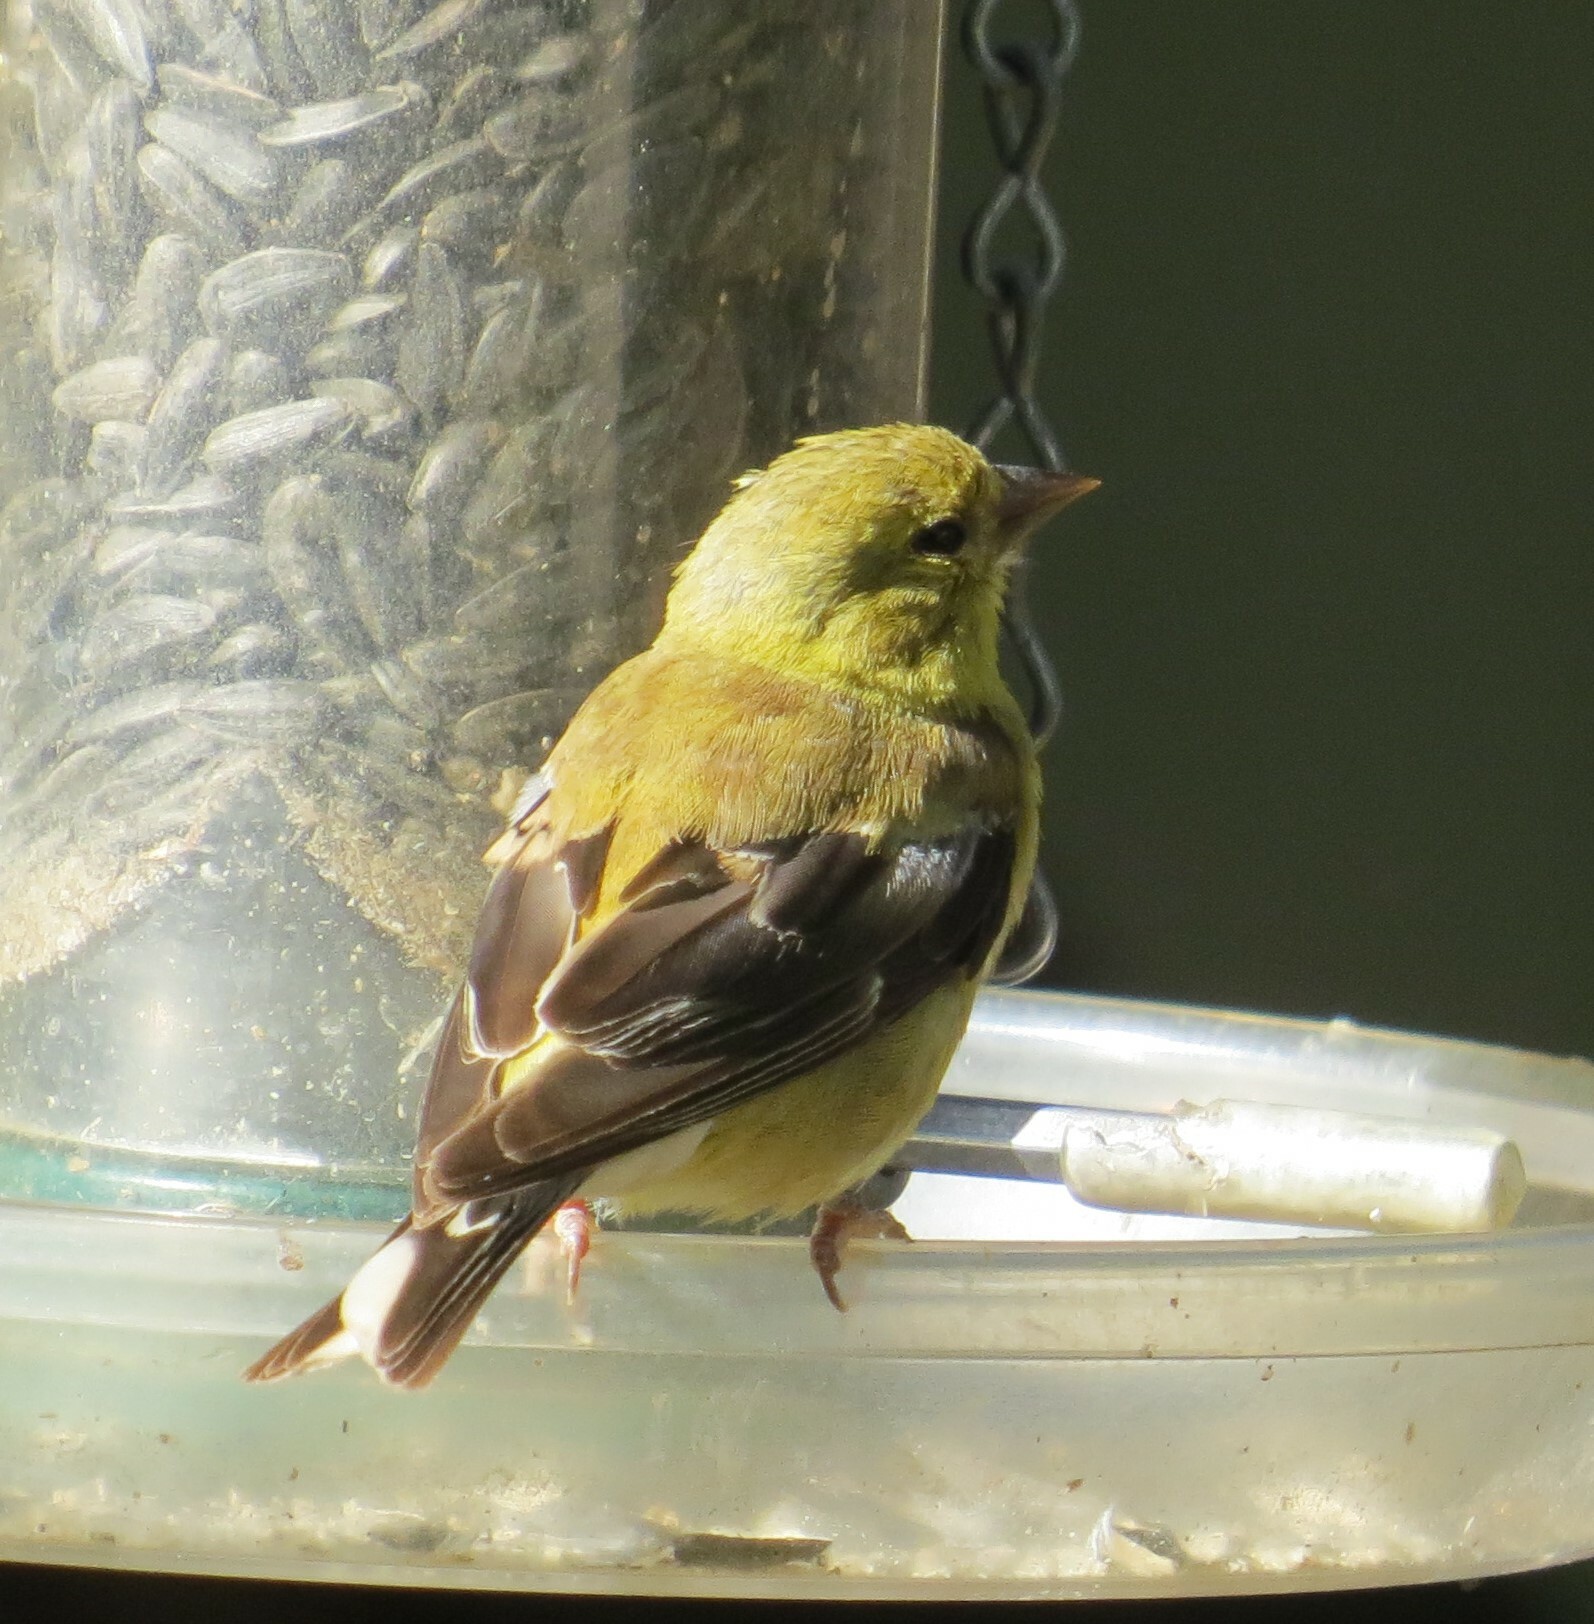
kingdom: Animalia
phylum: Chordata
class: Aves
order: Passeriformes
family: Fringillidae
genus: Spinus
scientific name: Spinus tristis
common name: American goldfinch
